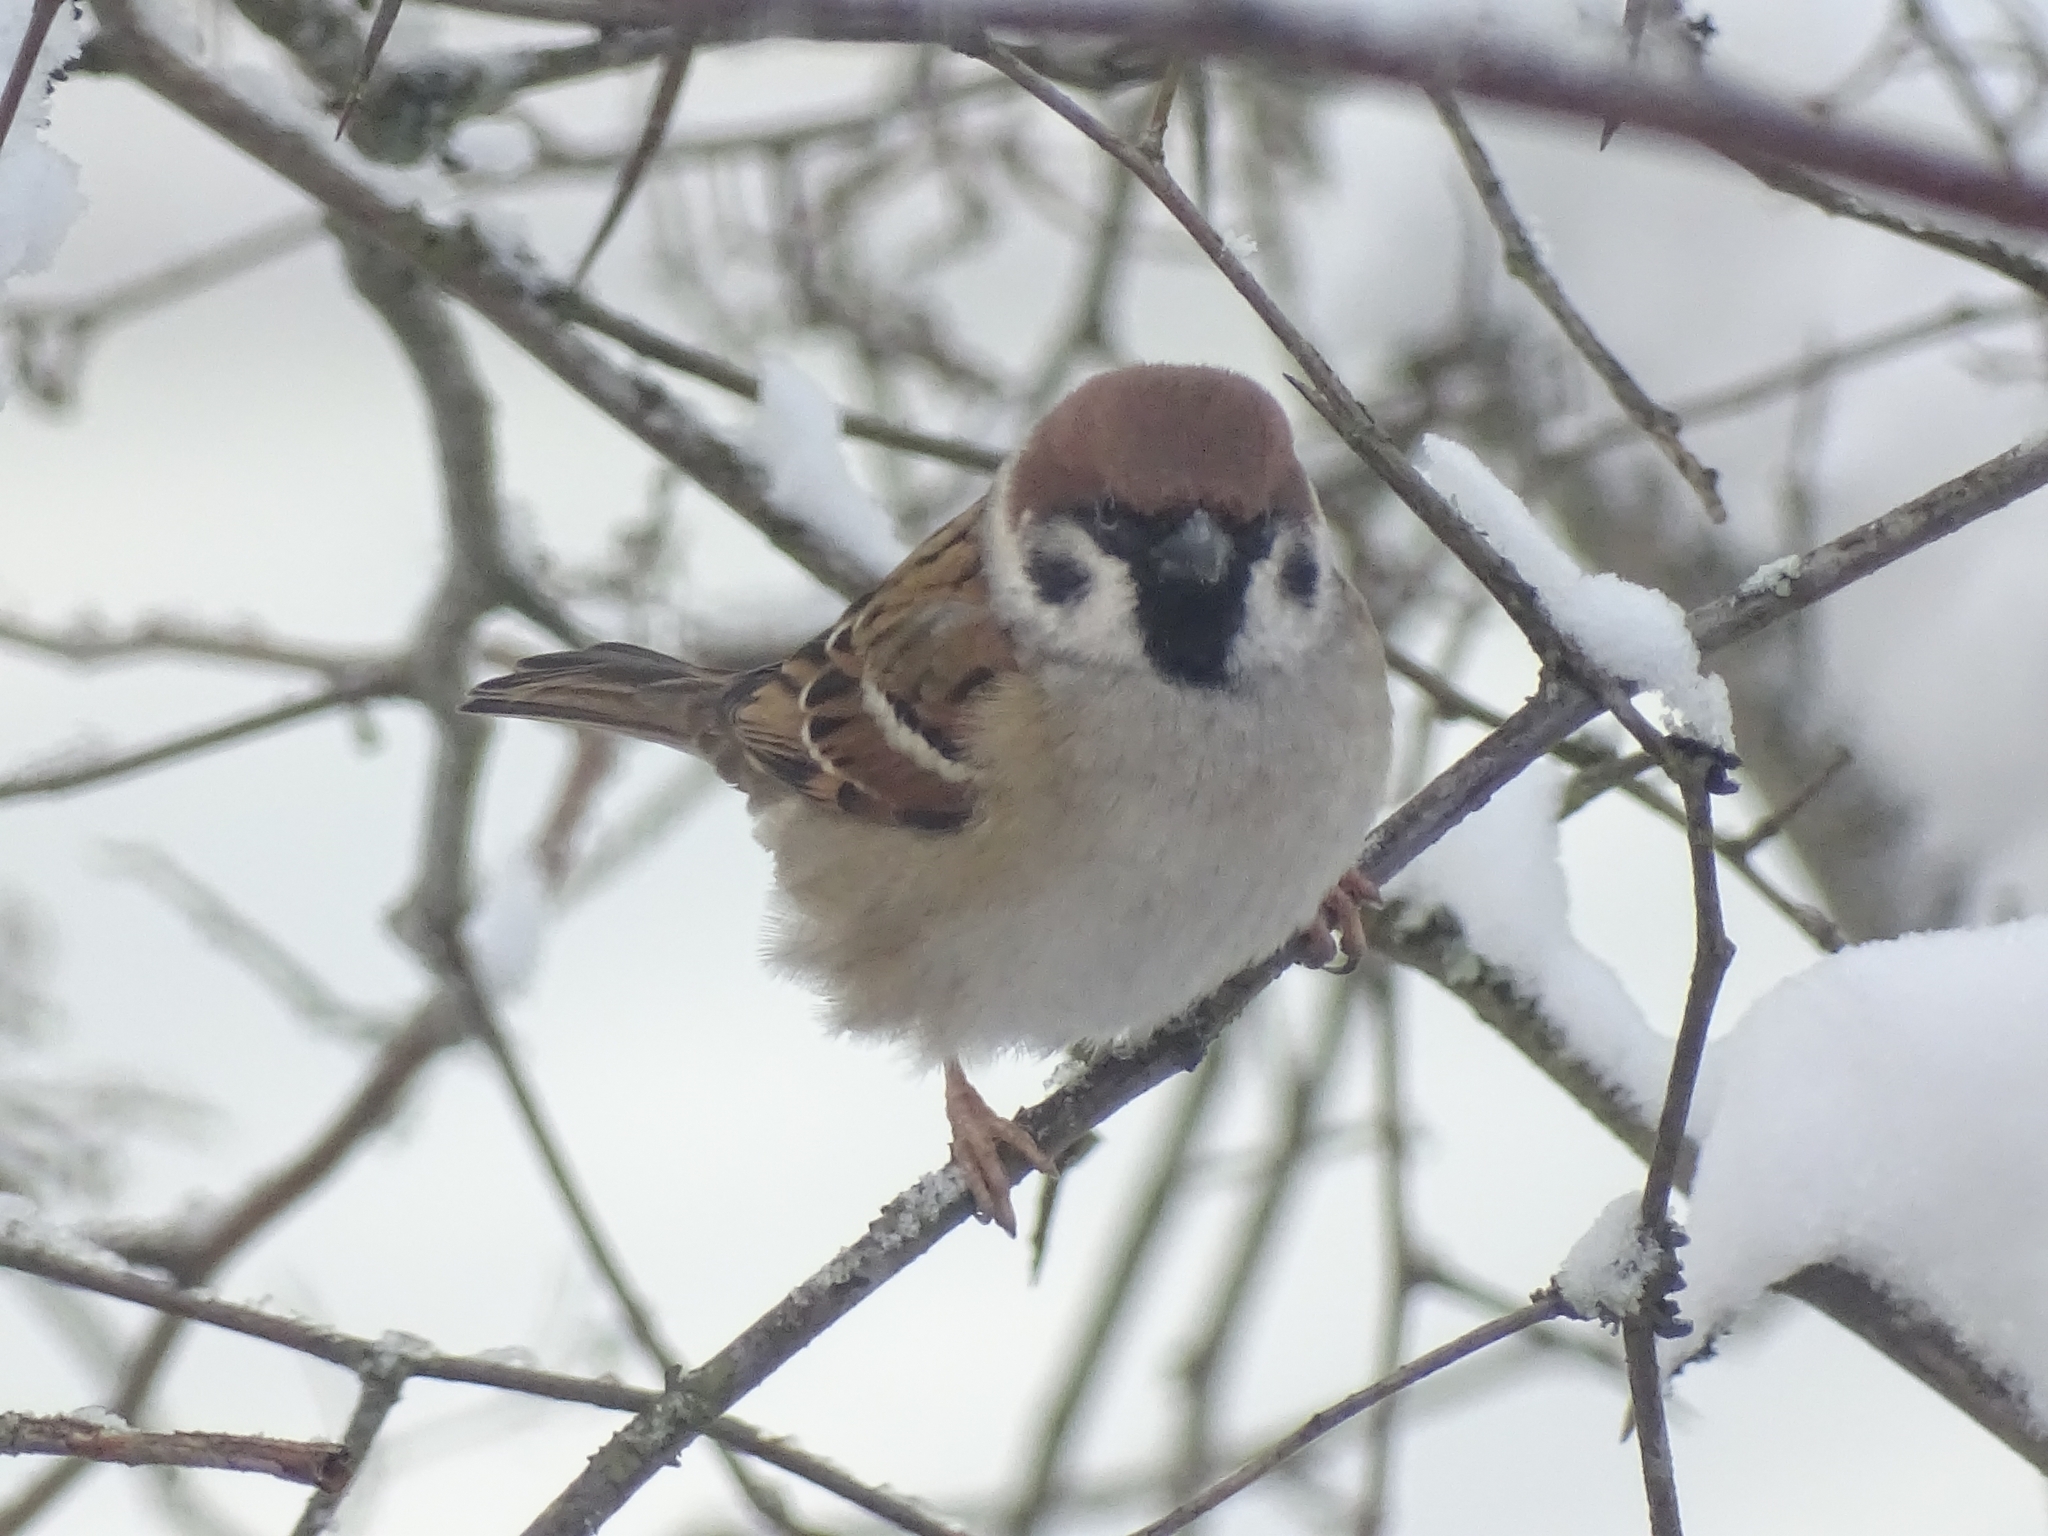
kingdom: Animalia
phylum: Chordata
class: Aves
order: Passeriformes
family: Passeridae
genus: Passer
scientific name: Passer montanus
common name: Eurasian tree sparrow
